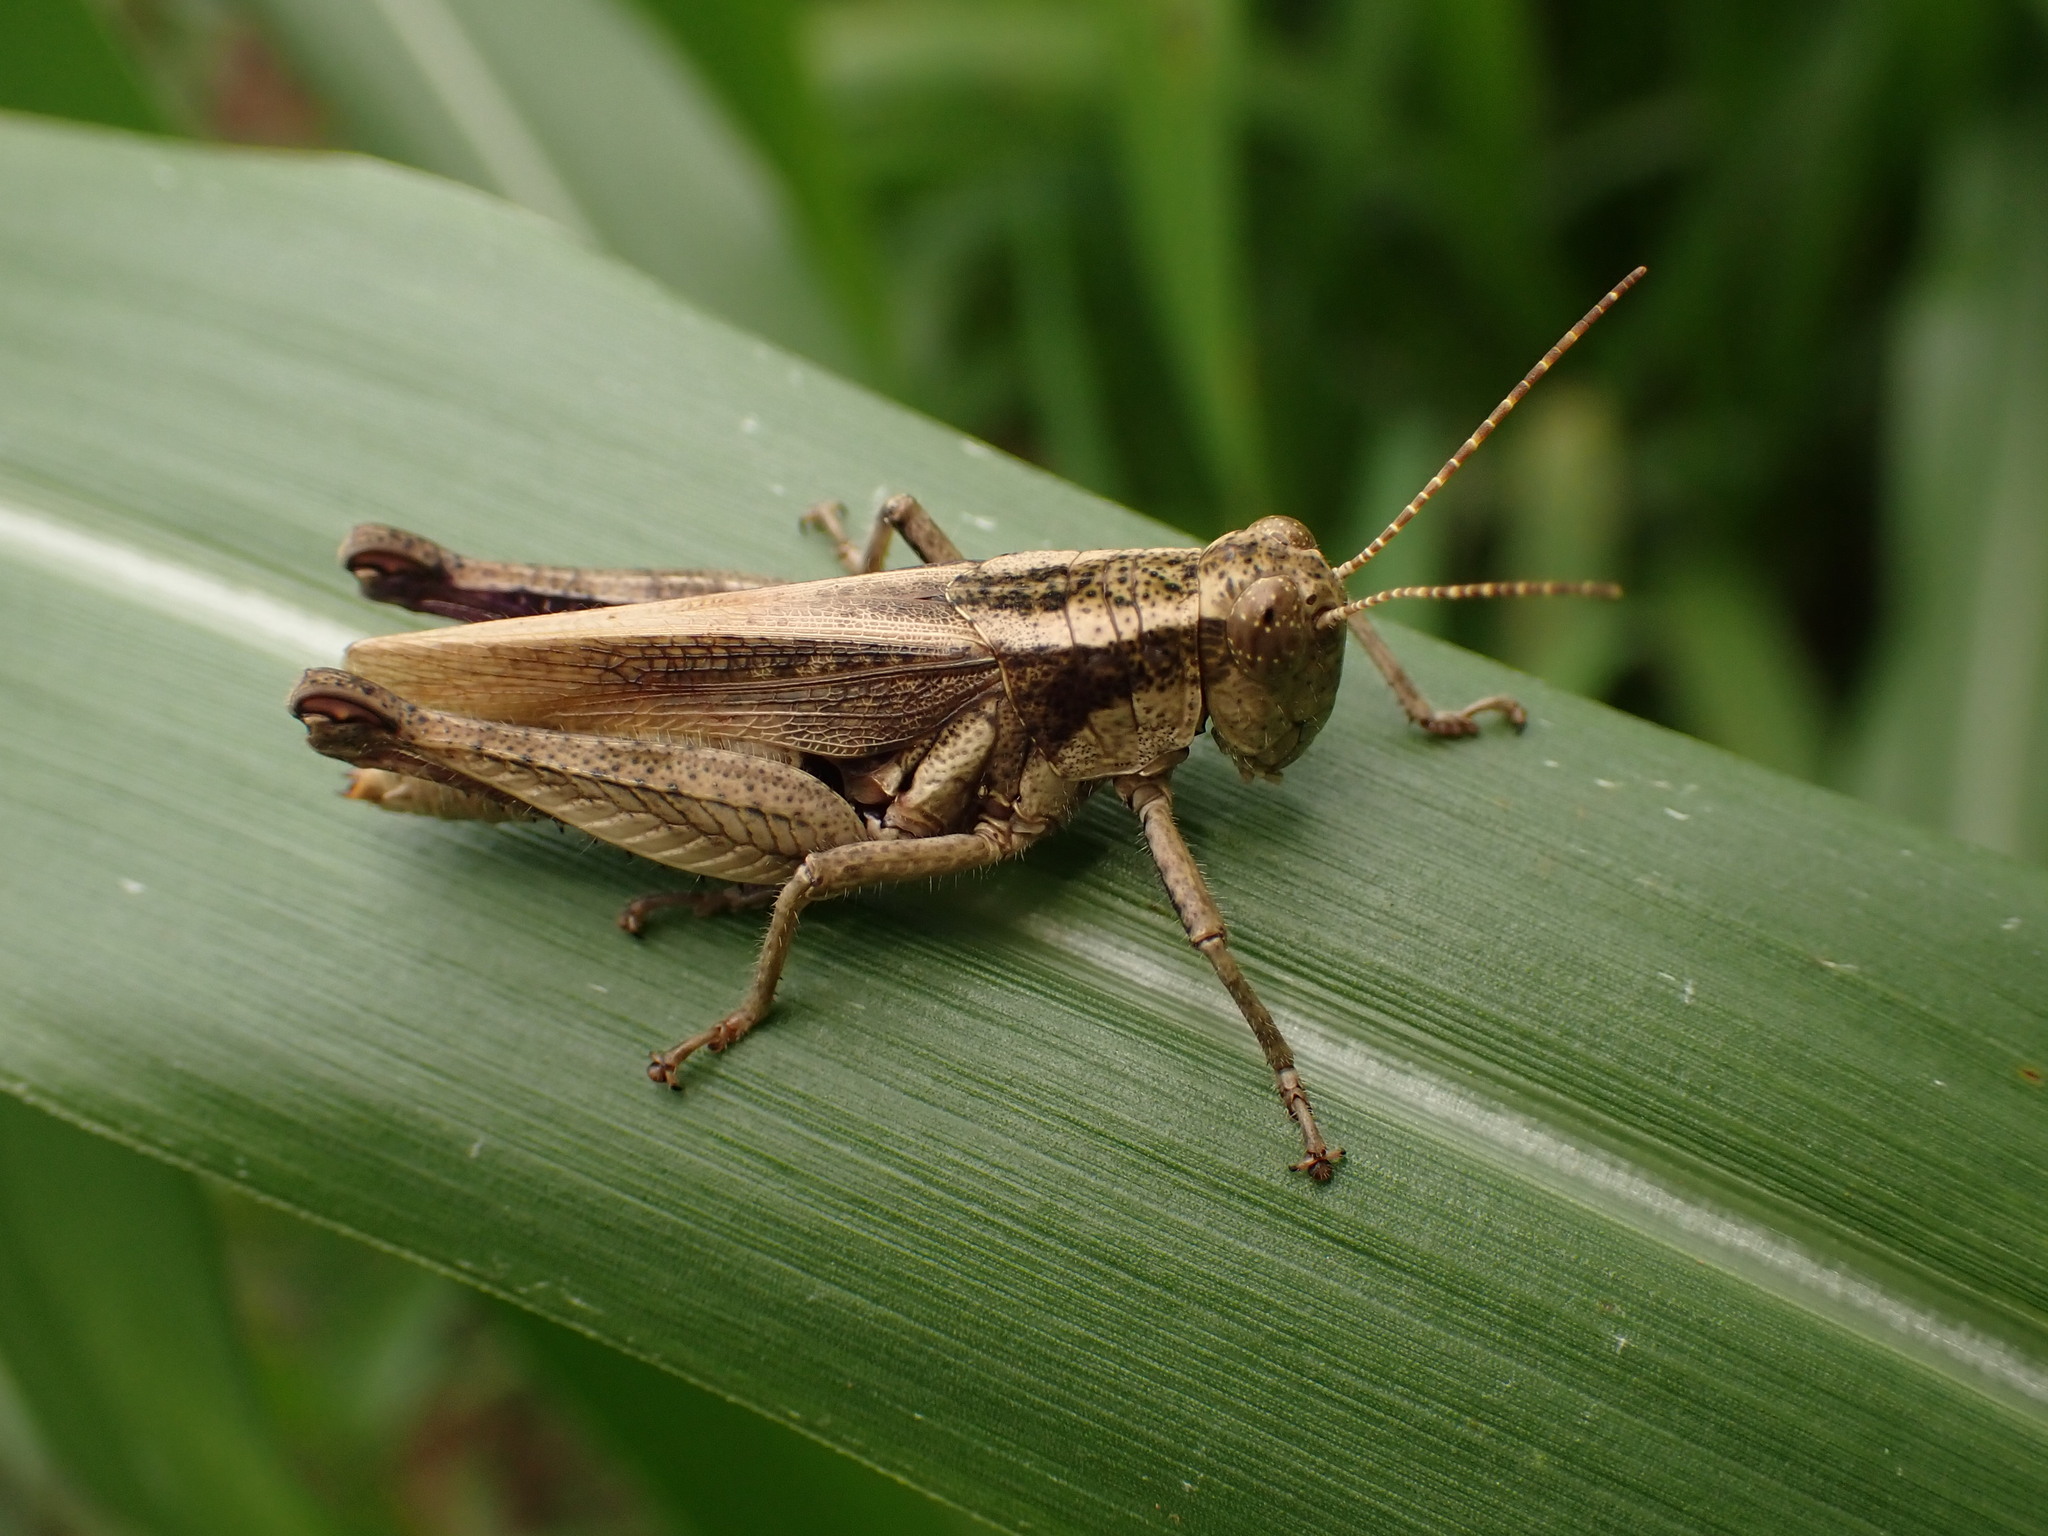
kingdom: Animalia
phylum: Arthropoda
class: Insecta
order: Orthoptera
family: Acrididae
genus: Ronderosia
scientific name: Ronderosia bergii
